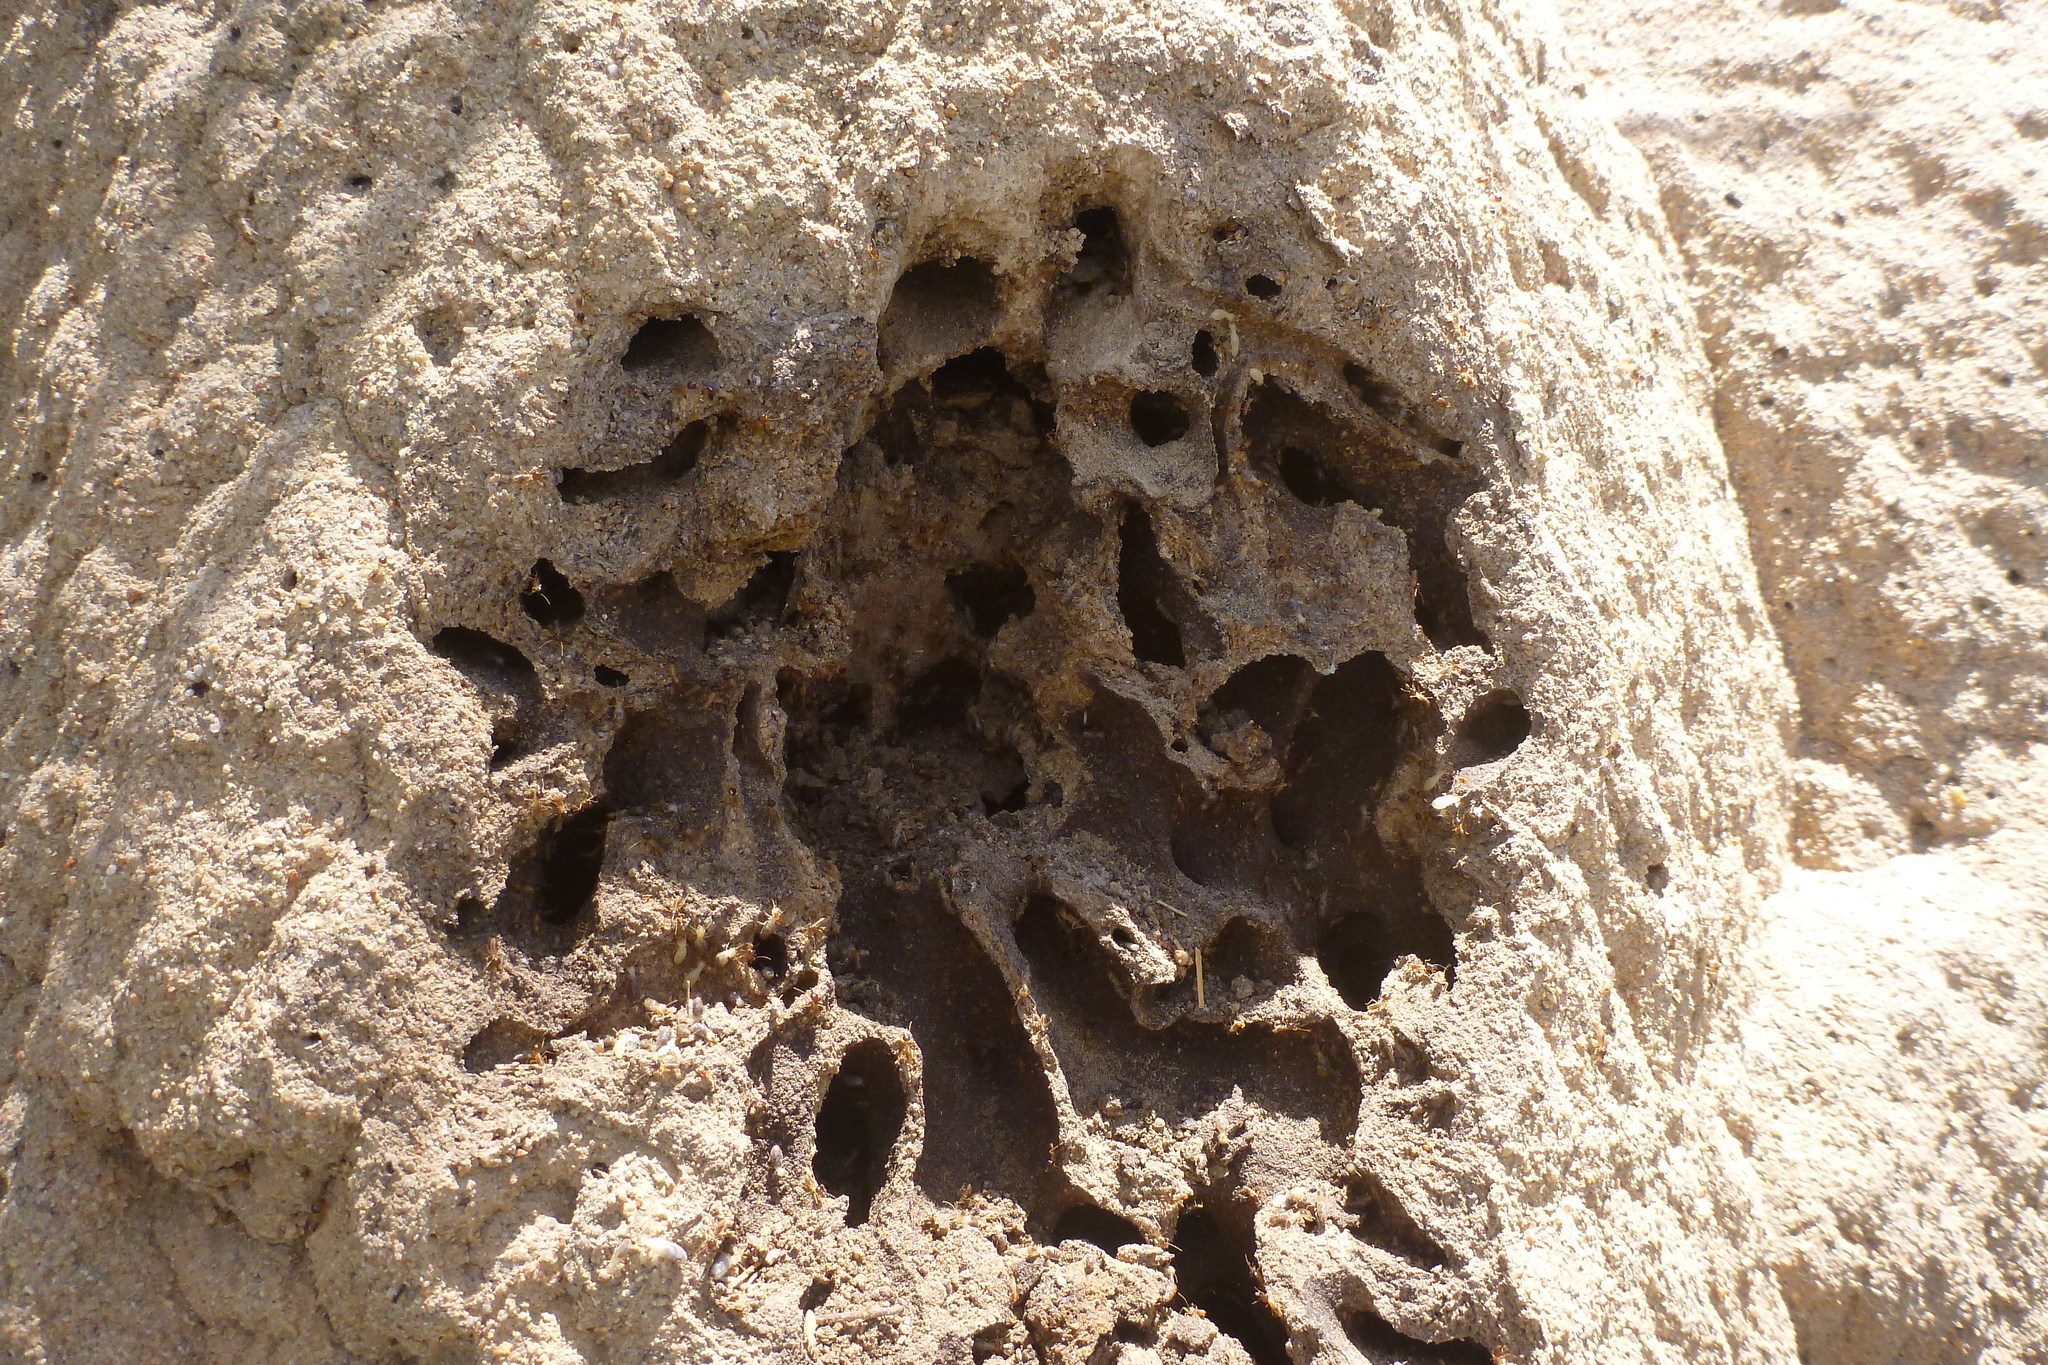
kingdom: Fungi
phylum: Basidiomycota
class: Agaricomycetes
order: Agaricales
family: Agaricaceae
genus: Podaxis
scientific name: Podaxis beringamensis
